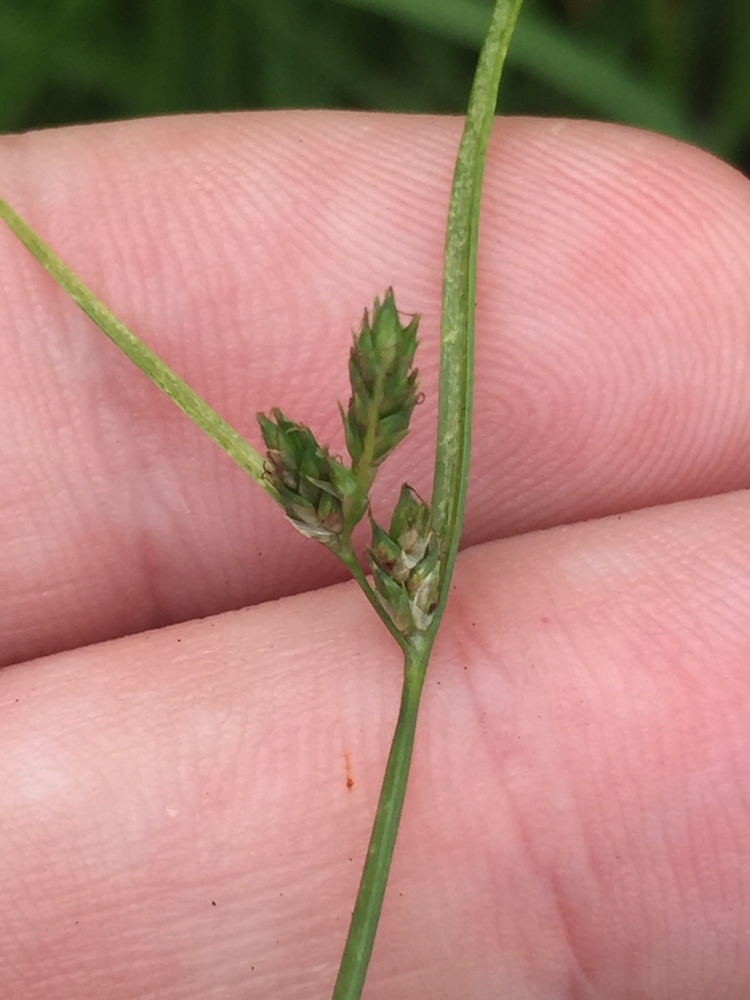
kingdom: Plantae
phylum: Tracheophyta
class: Liliopsida
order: Poales
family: Cyperaceae
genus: Carex
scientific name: Carex inversa
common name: Knob sedge
